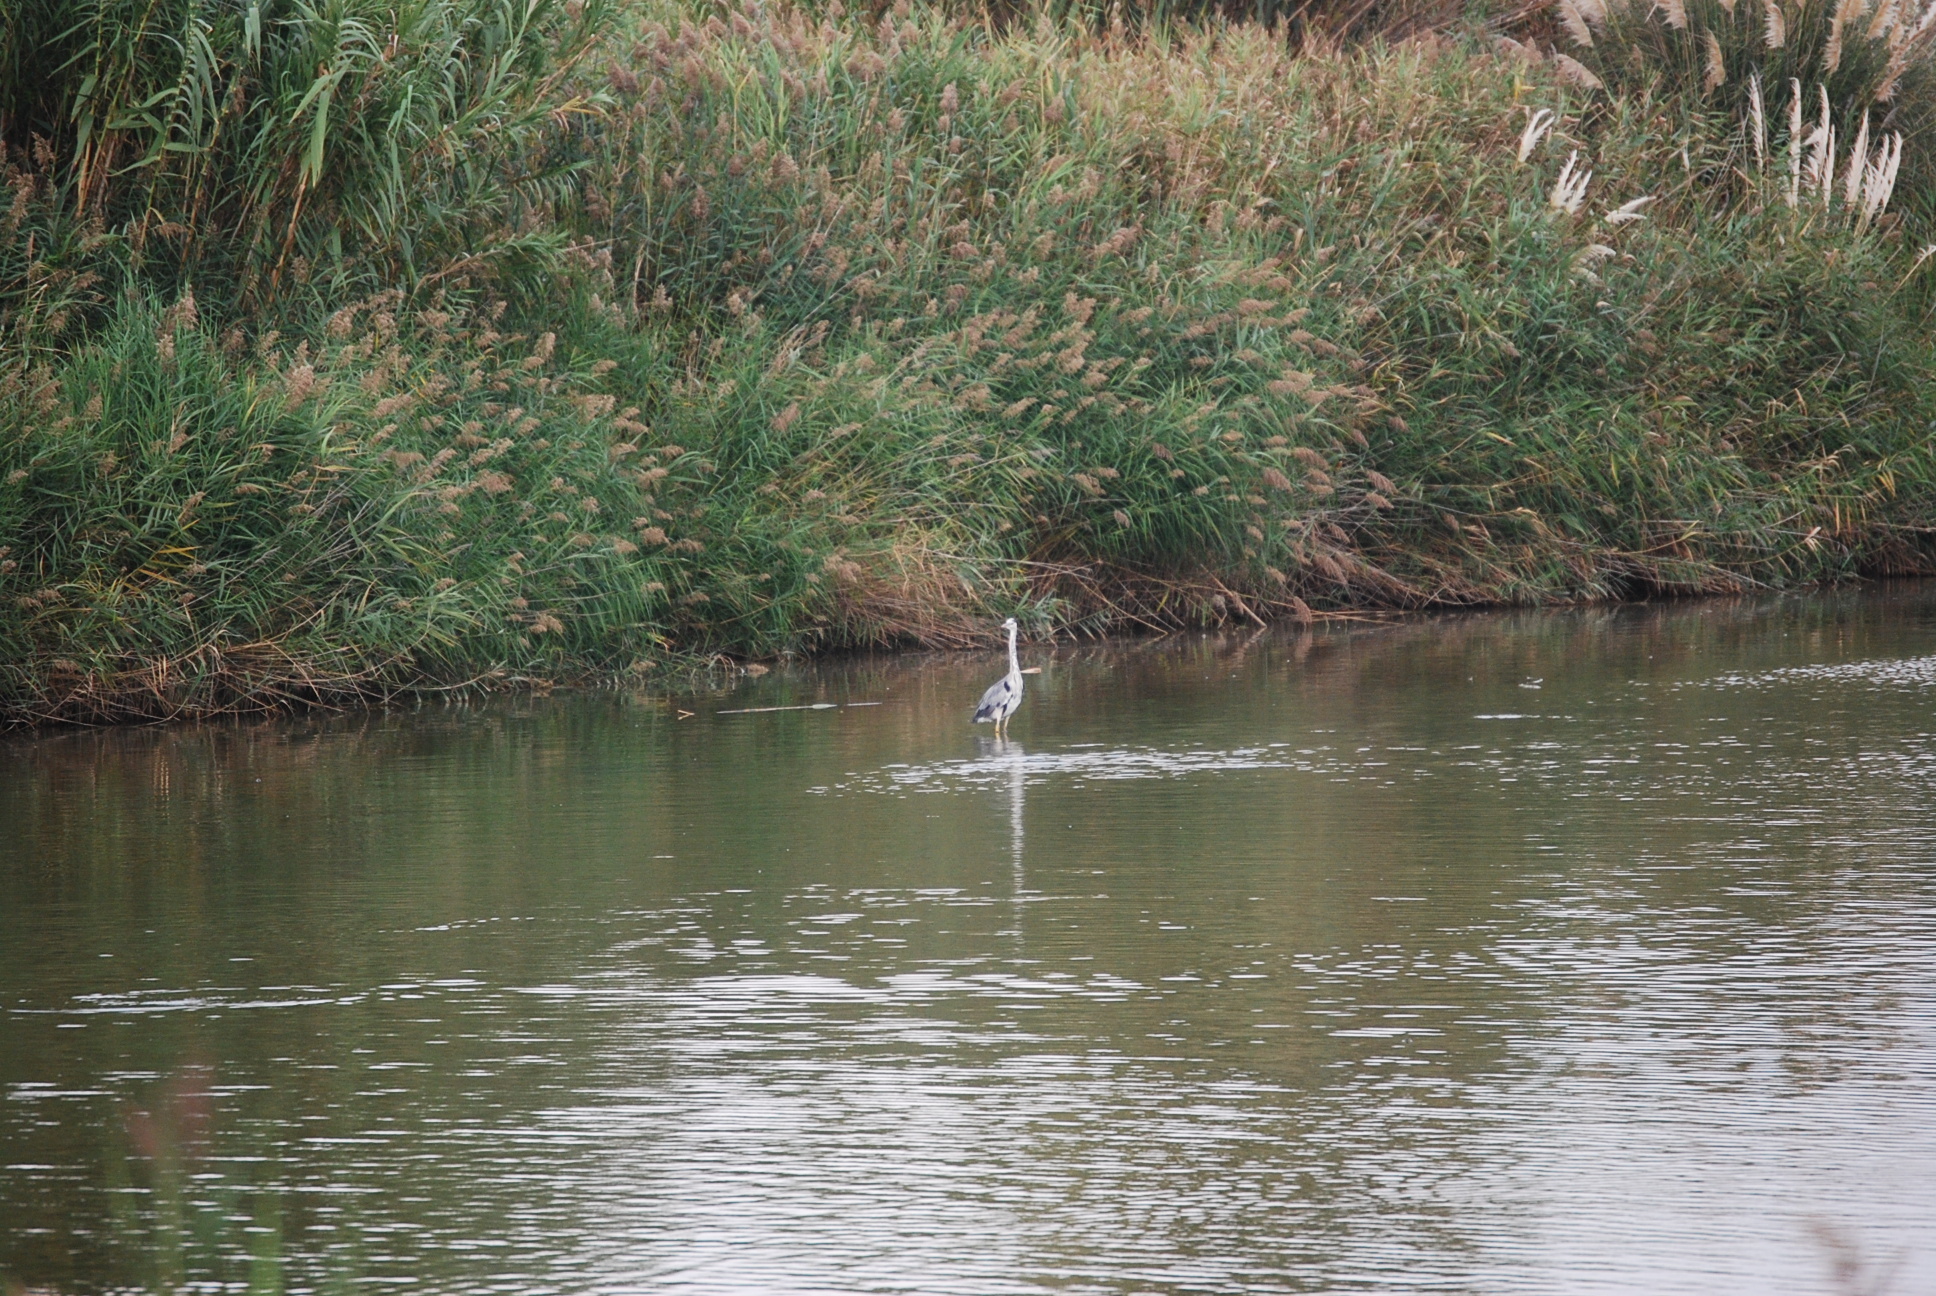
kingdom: Animalia
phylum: Chordata
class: Aves
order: Pelecaniformes
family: Ardeidae
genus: Ardea
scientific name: Ardea cinerea
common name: Grey heron
